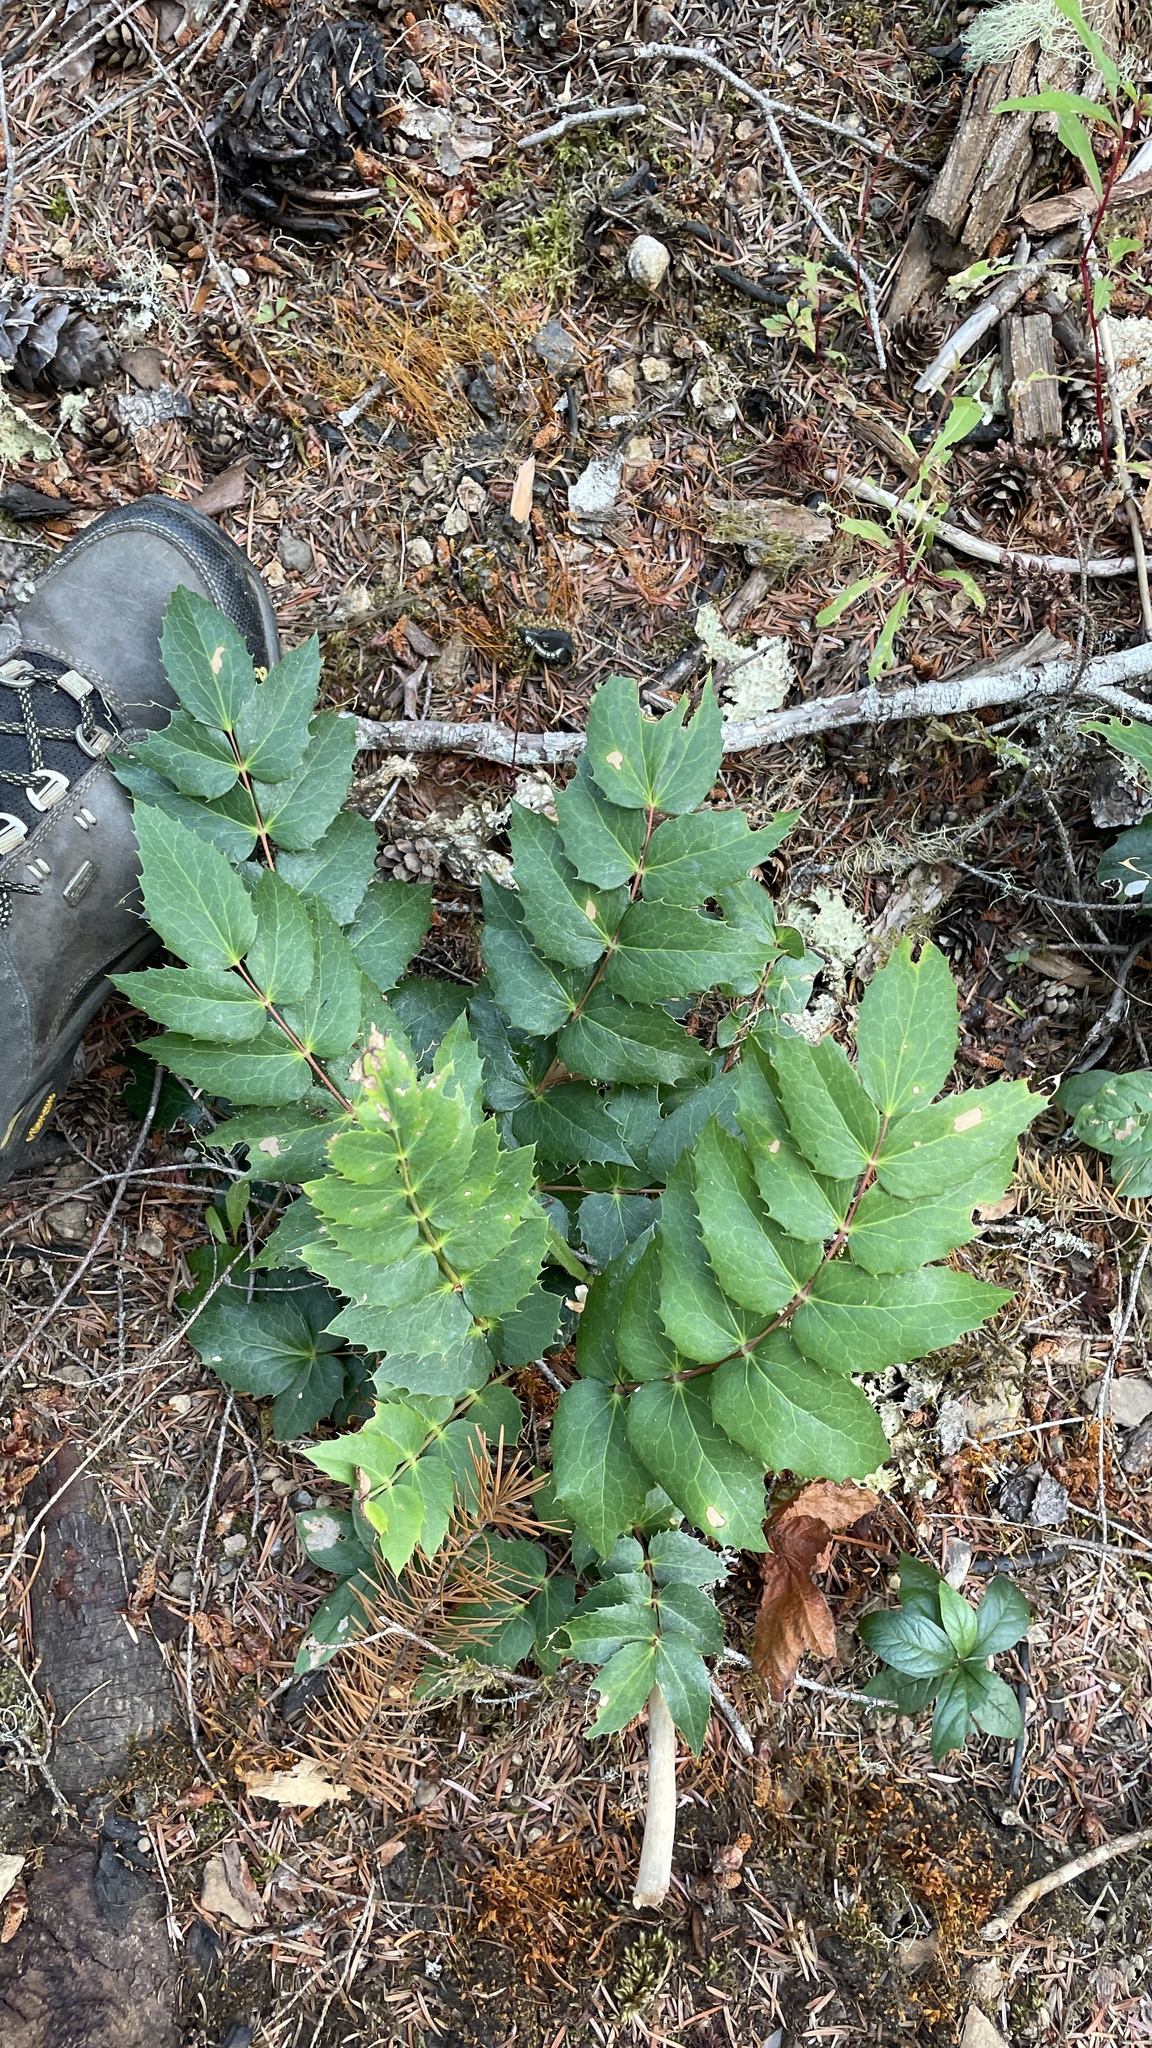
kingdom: Plantae
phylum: Tracheophyta
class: Magnoliopsida
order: Ranunculales
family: Berberidaceae
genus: Mahonia
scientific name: Mahonia nervosa
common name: Cascade oregon-grape
